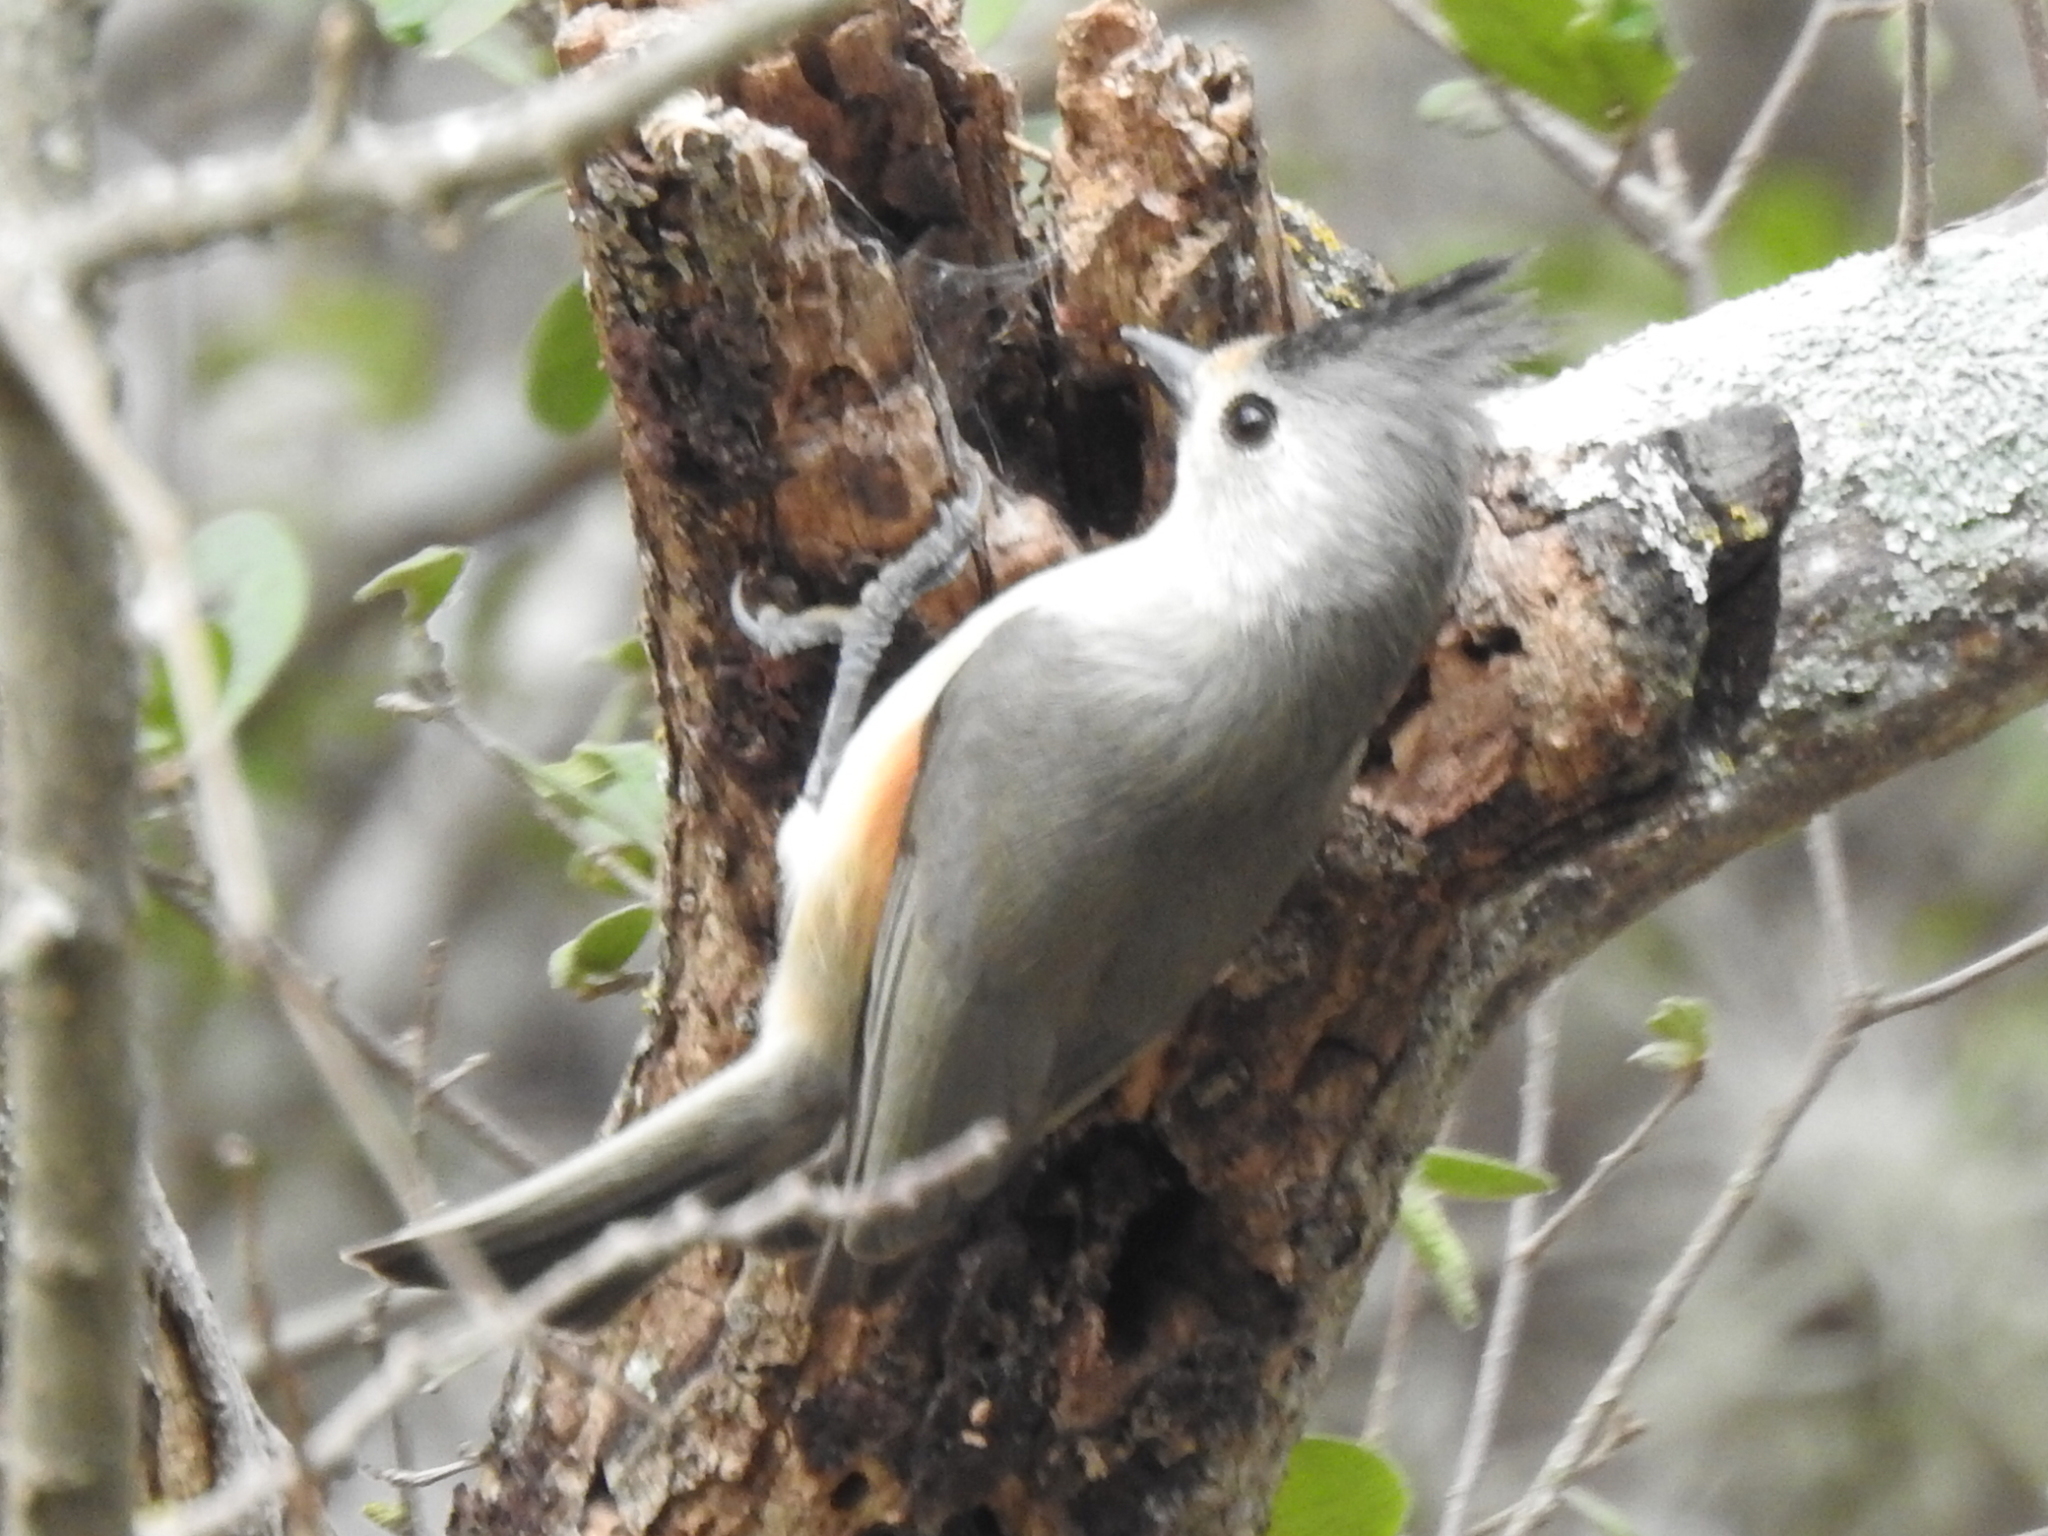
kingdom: Animalia
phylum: Chordata
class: Aves
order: Passeriformes
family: Paridae
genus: Baeolophus
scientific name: Baeolophus atricristatus
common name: Black-crested titmouse
